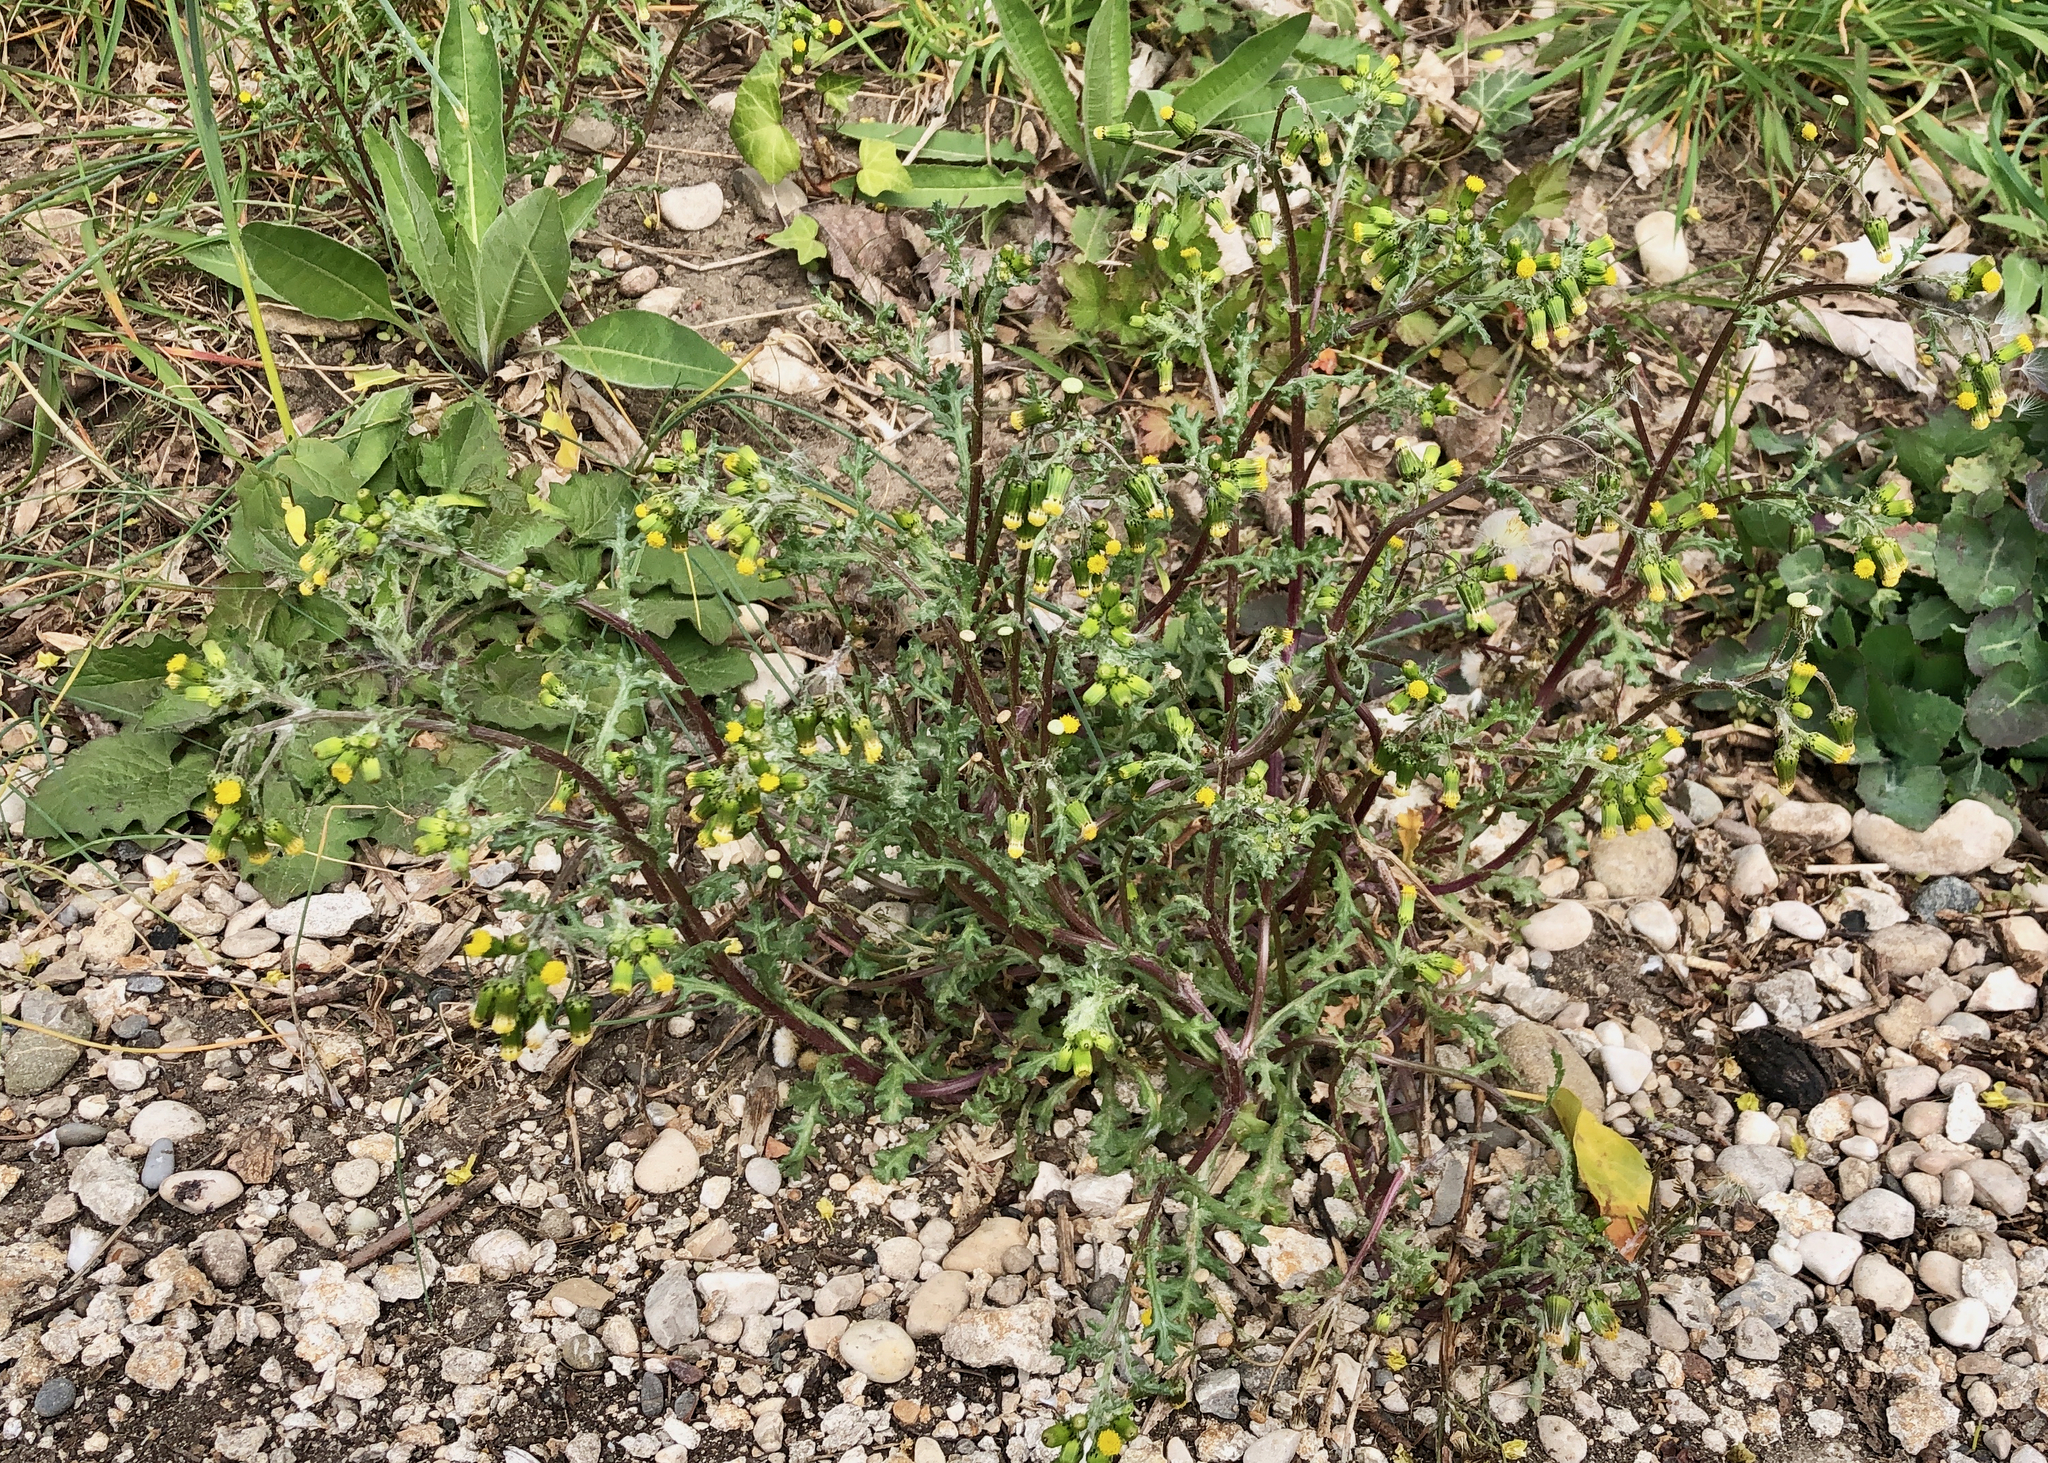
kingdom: Plantae
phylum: Tracheophyta
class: Magnoliopsida
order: Asterales
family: Asteraceae
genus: Senecio
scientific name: Senecio vulgaris
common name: Old-man-in-the-spring
